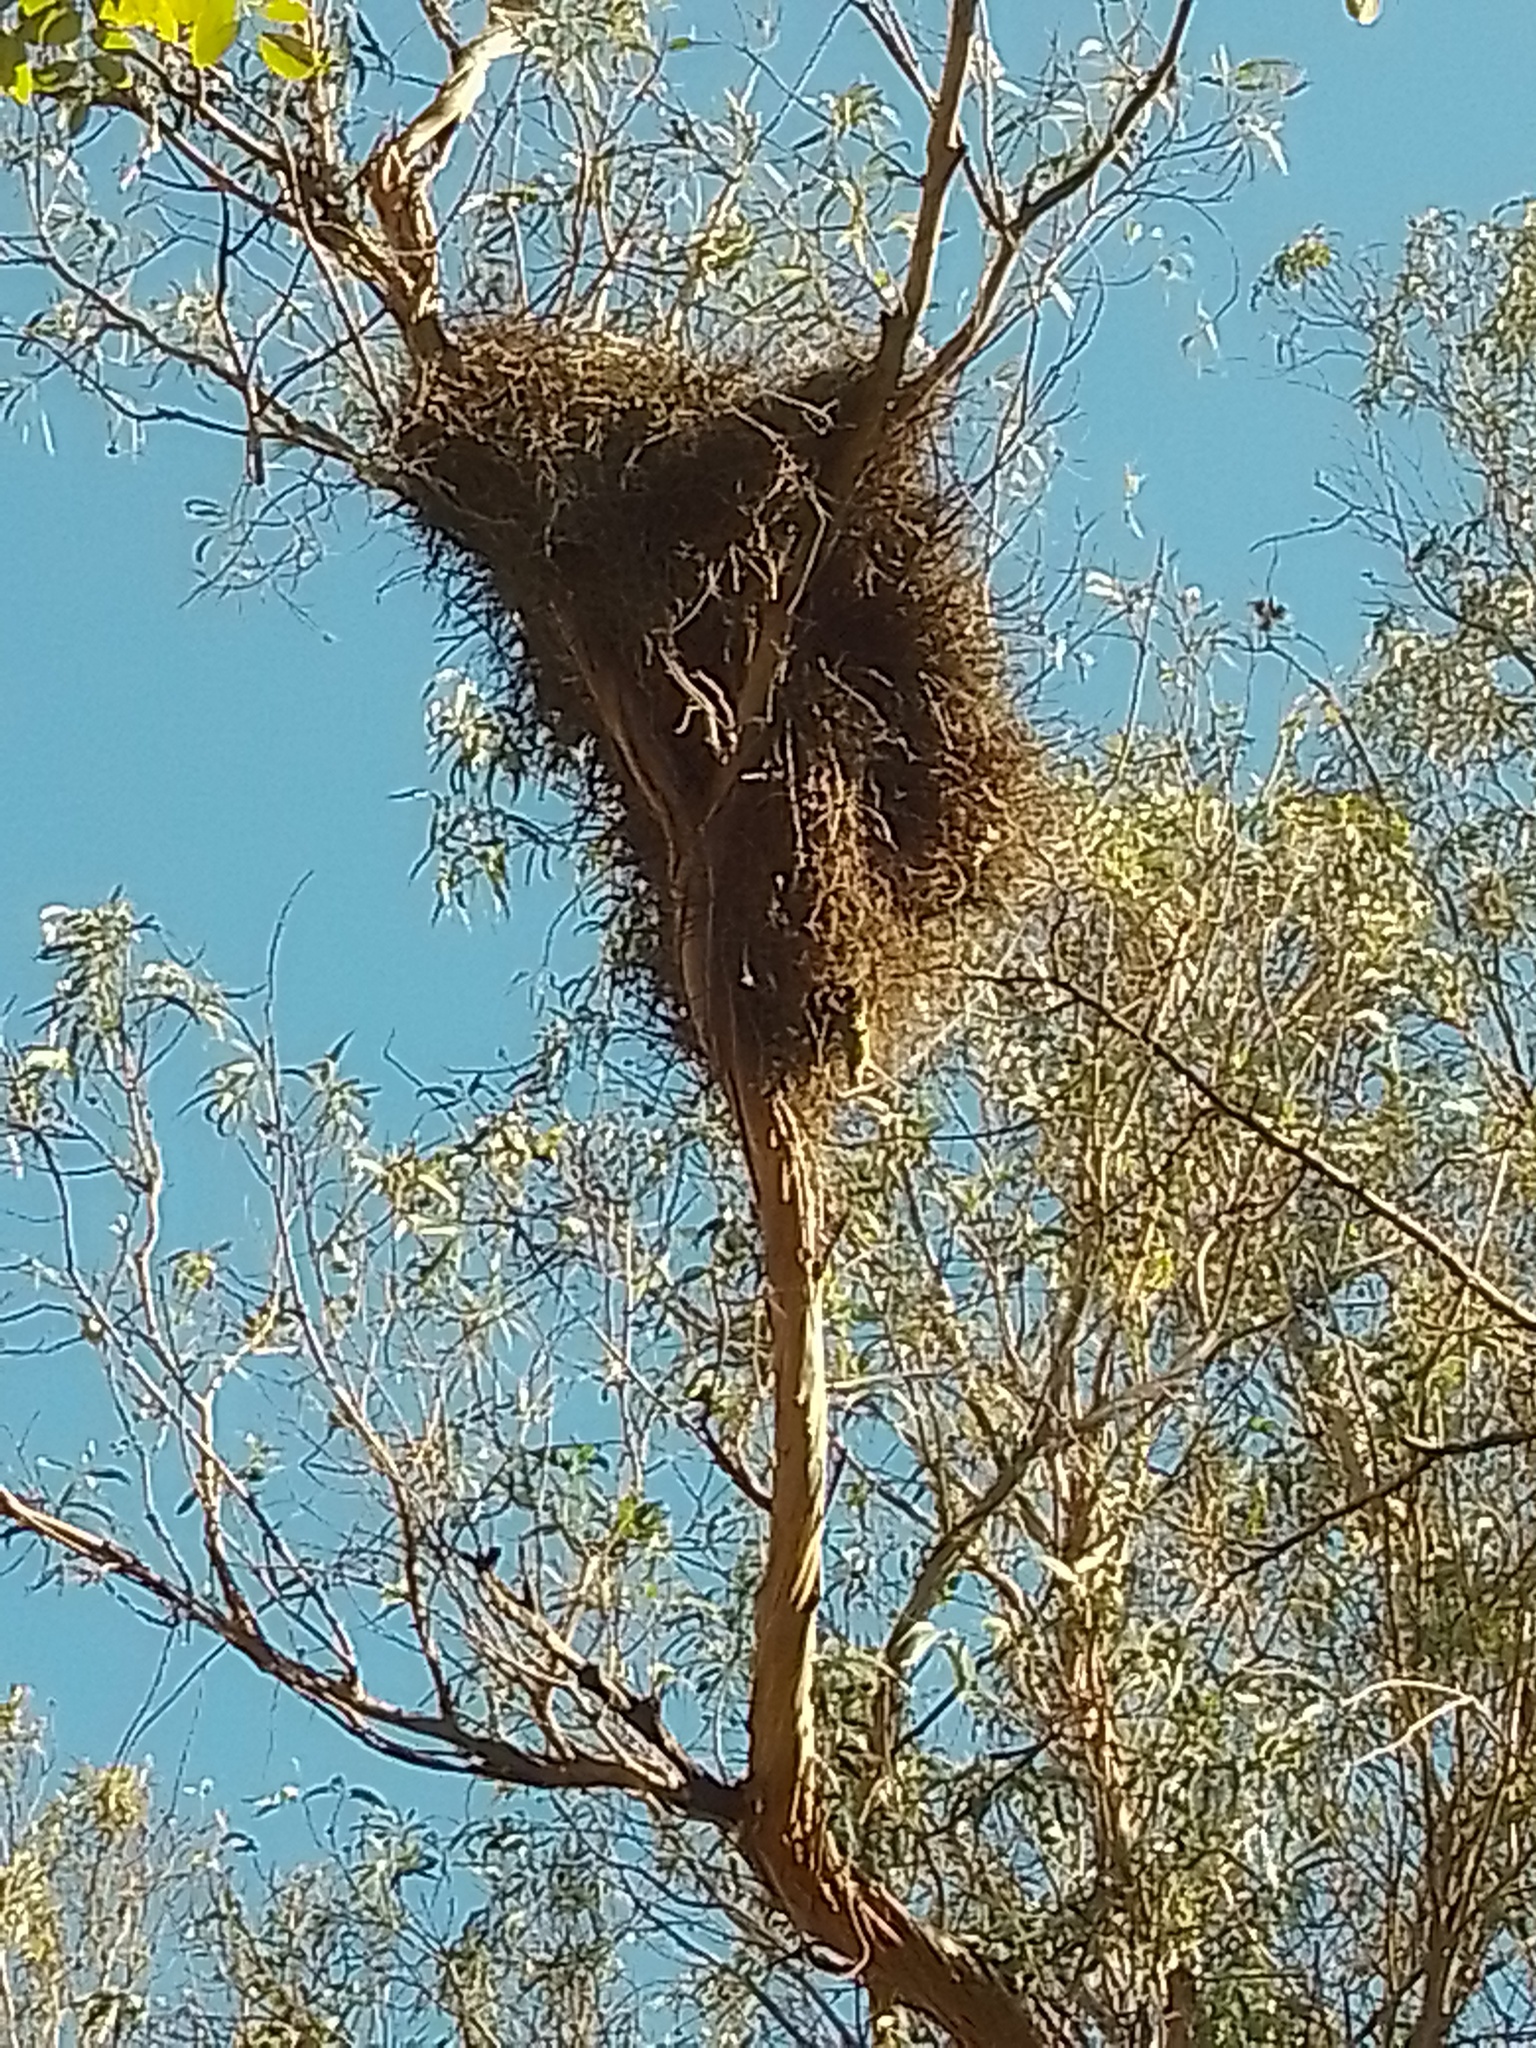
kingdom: Animalia
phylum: Chordata
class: Aves
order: Psittaciformes
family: Psittacidae
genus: Myiopsitta
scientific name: Myiopsitta monachus
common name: Monk parakeet
